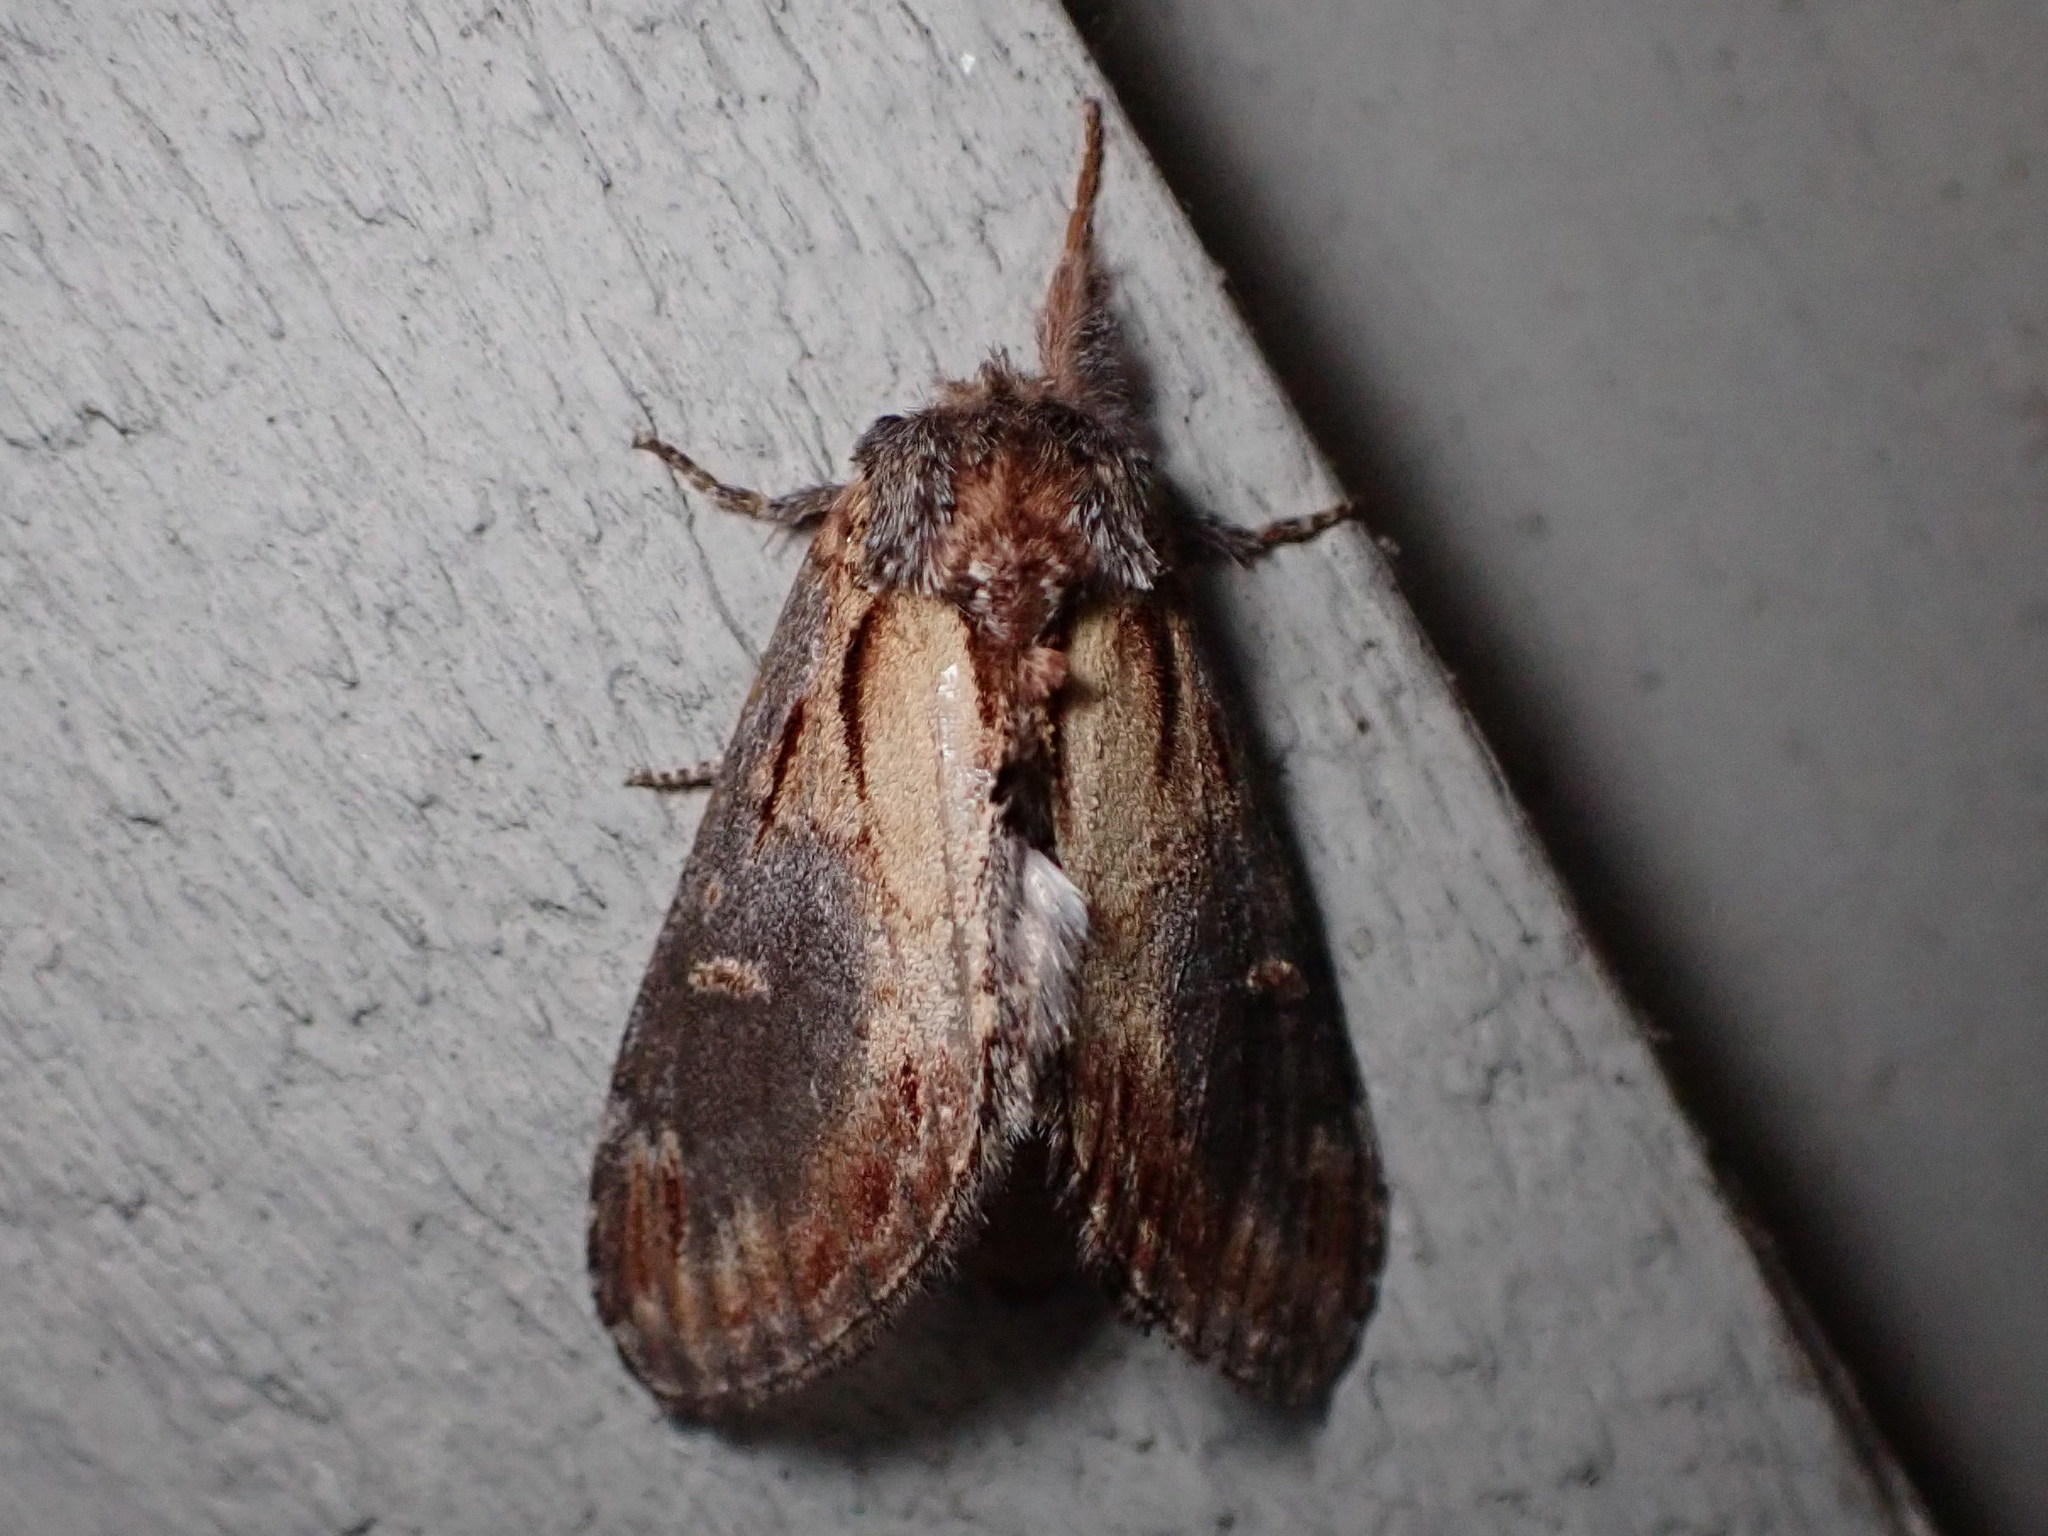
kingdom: Animalia
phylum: Arthropoda
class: Insecta
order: Lepidoptera
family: Notodontidae
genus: Notodonta
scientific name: Notodonta scitipennis
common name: Finned-willow prominent moth
